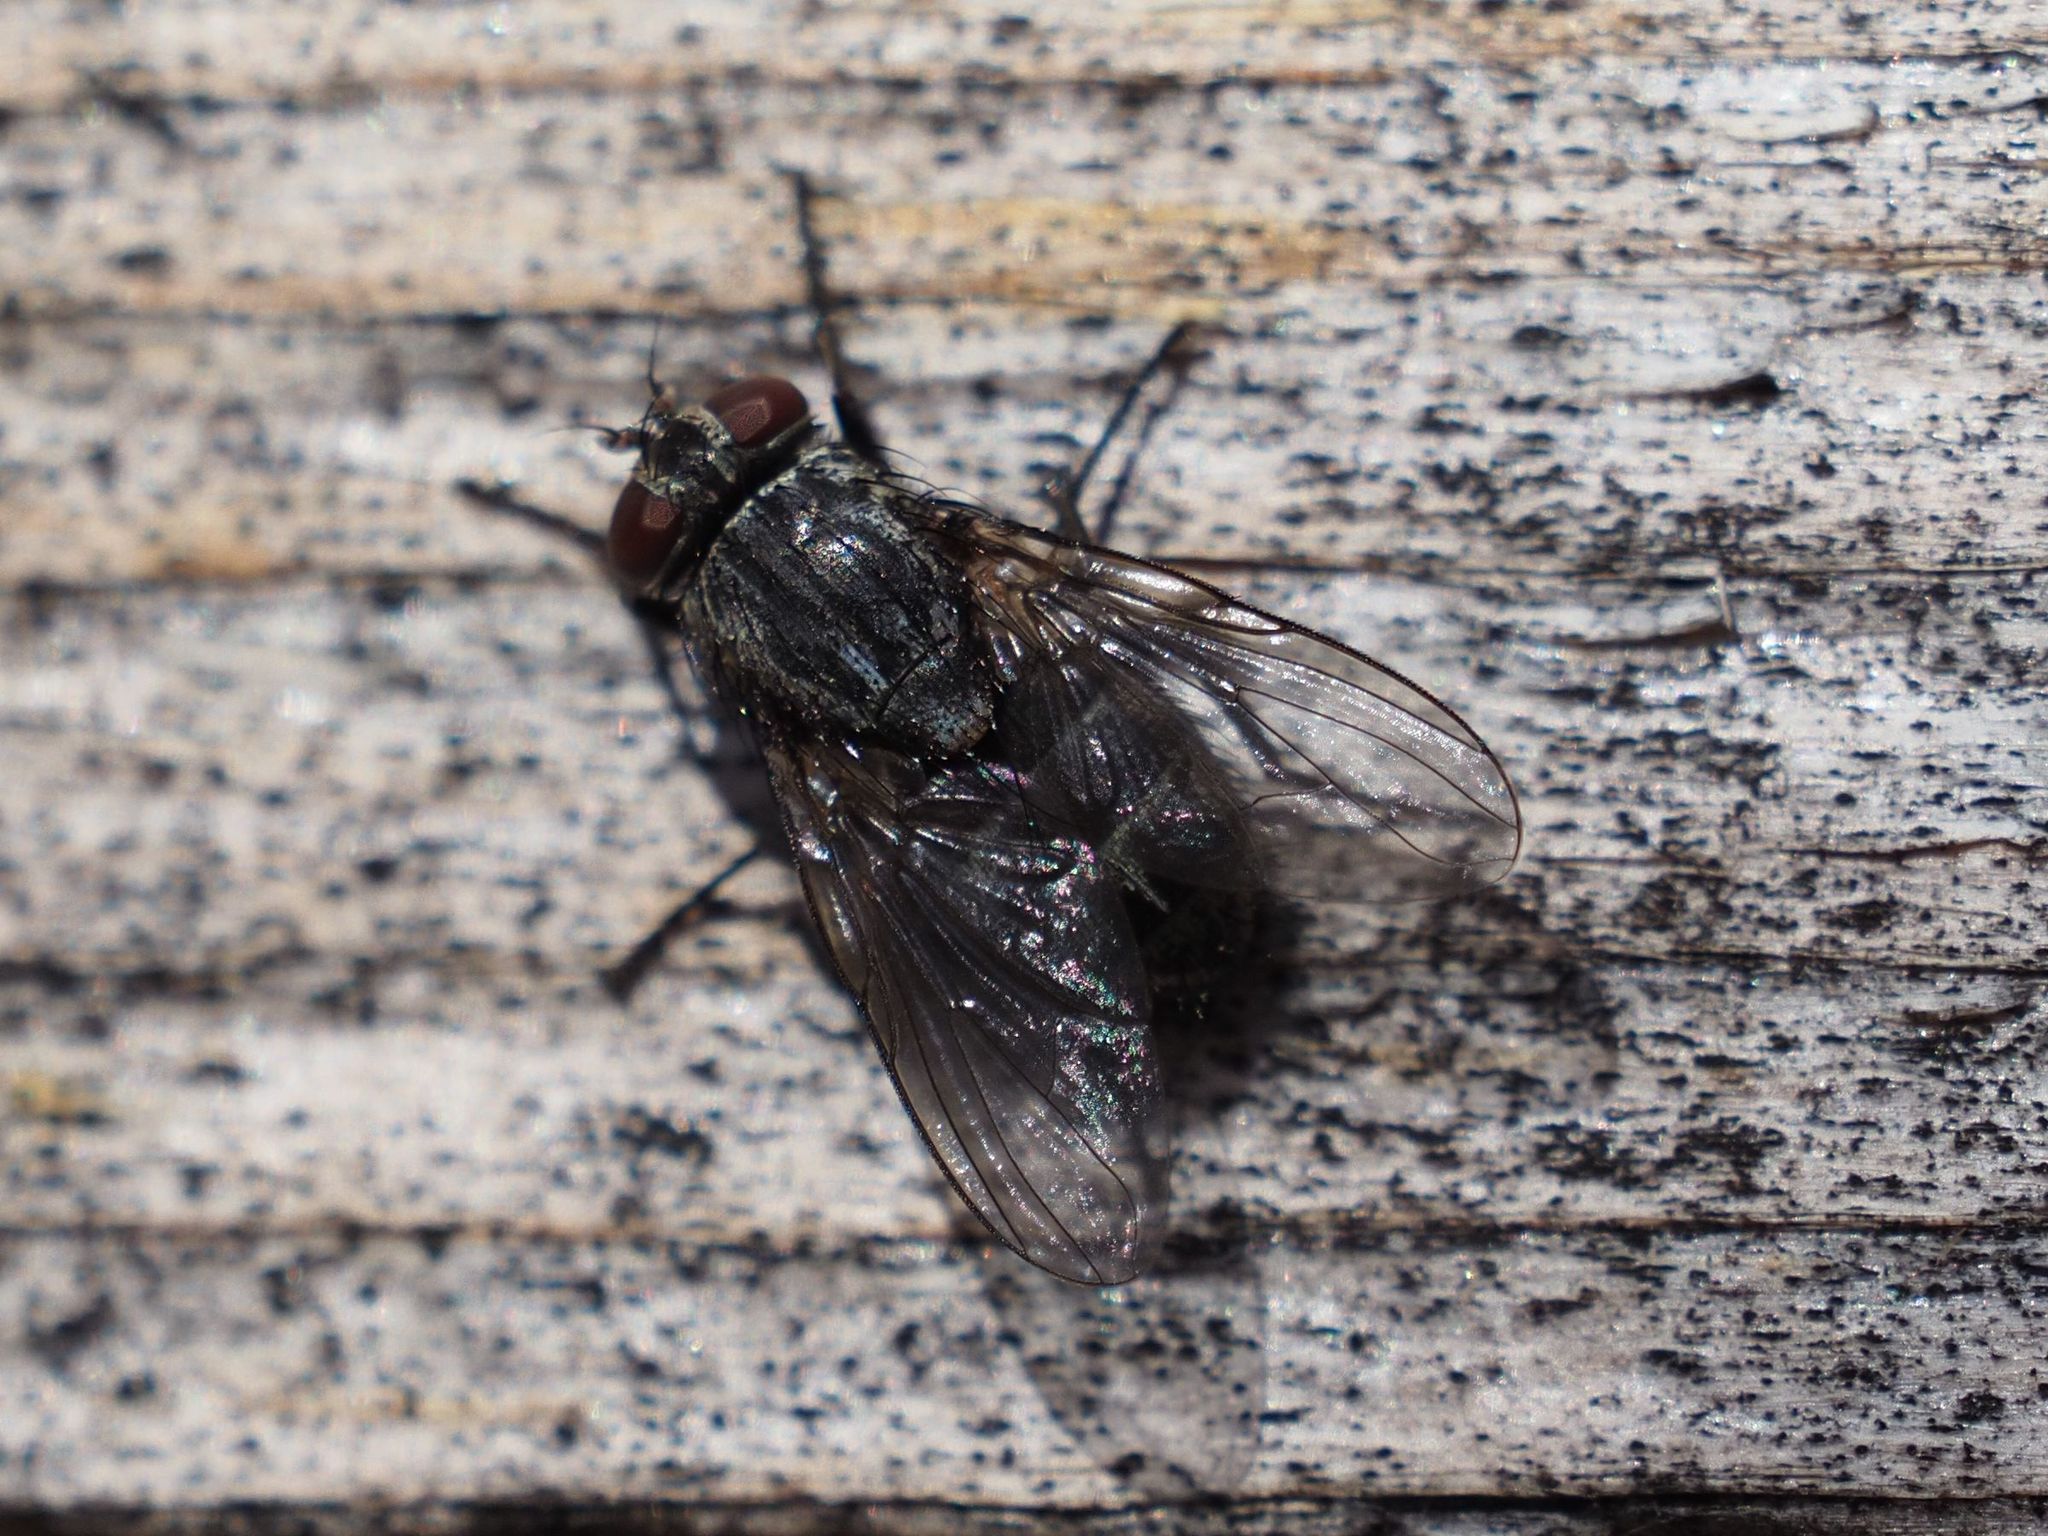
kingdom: Animalia
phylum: Arthropoda
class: Insecta
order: Diptera
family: Muscidae
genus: Muscina
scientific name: Muscina prolapsa
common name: Muscoid fly
